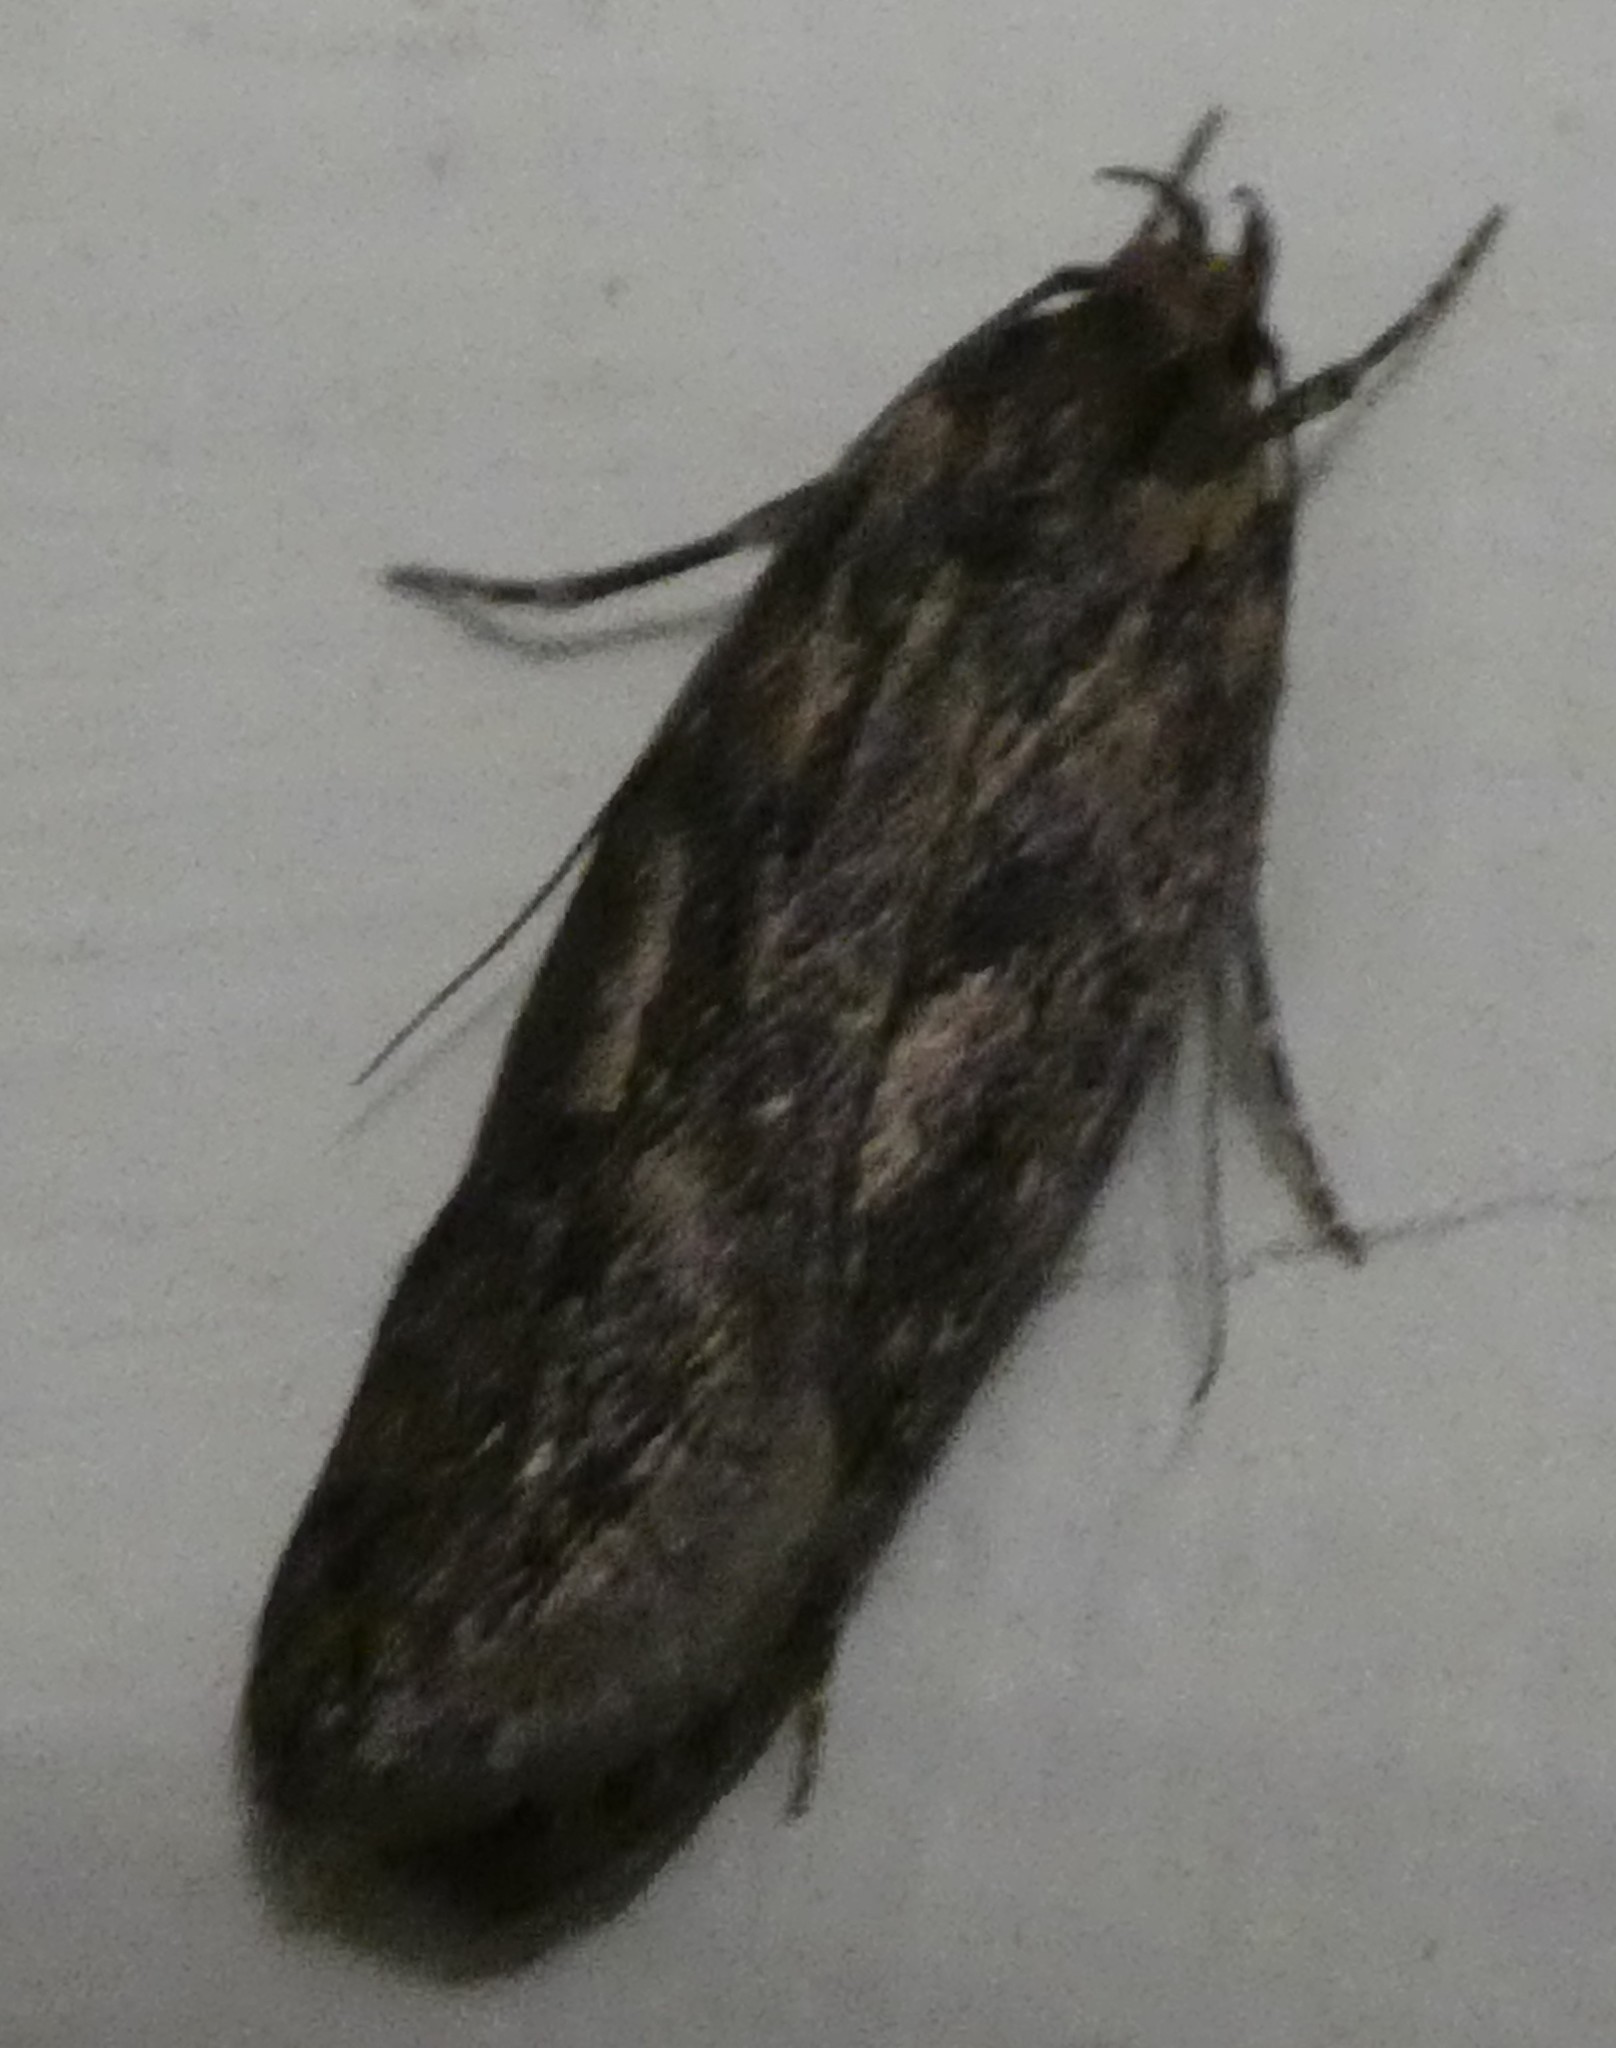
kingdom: Animalia
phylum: Arthropoda
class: Insecta
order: Lepidoptera
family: Oecophoridae
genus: Hofmannophila
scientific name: Hofmannophila pseudospretella
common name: Brown house moth
